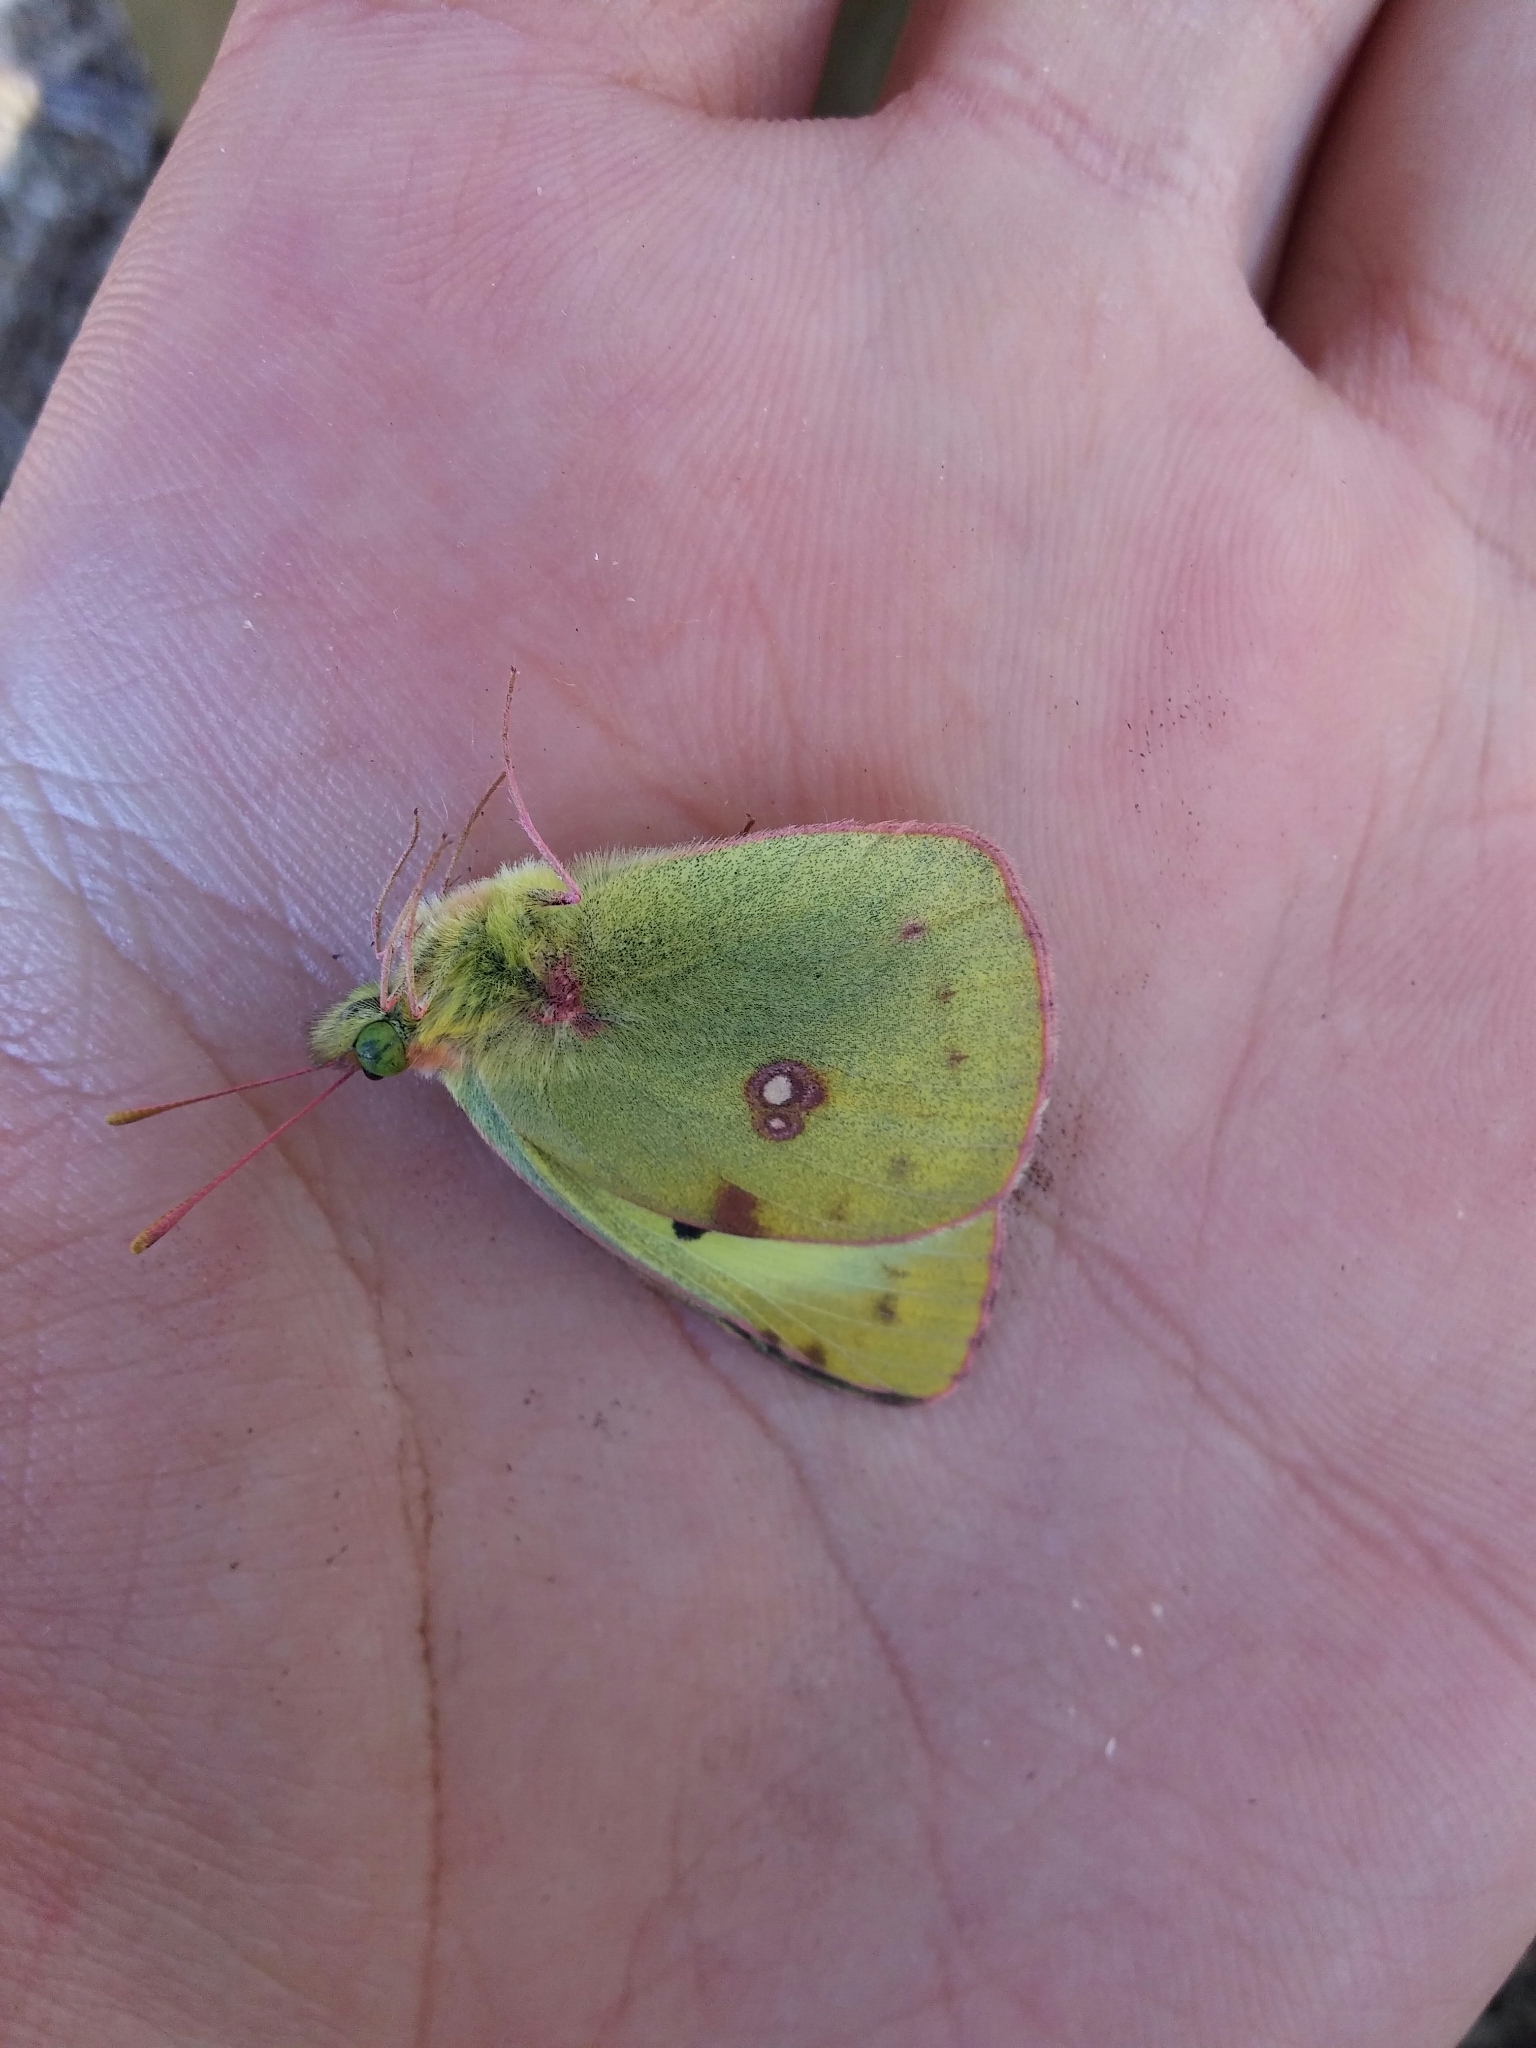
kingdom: Animalia
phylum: Arthropoda
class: Insecta
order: Lepidoptera
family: Pieridae
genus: Colias
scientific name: Colias alfacariensis
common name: Berger's clouded yellow
